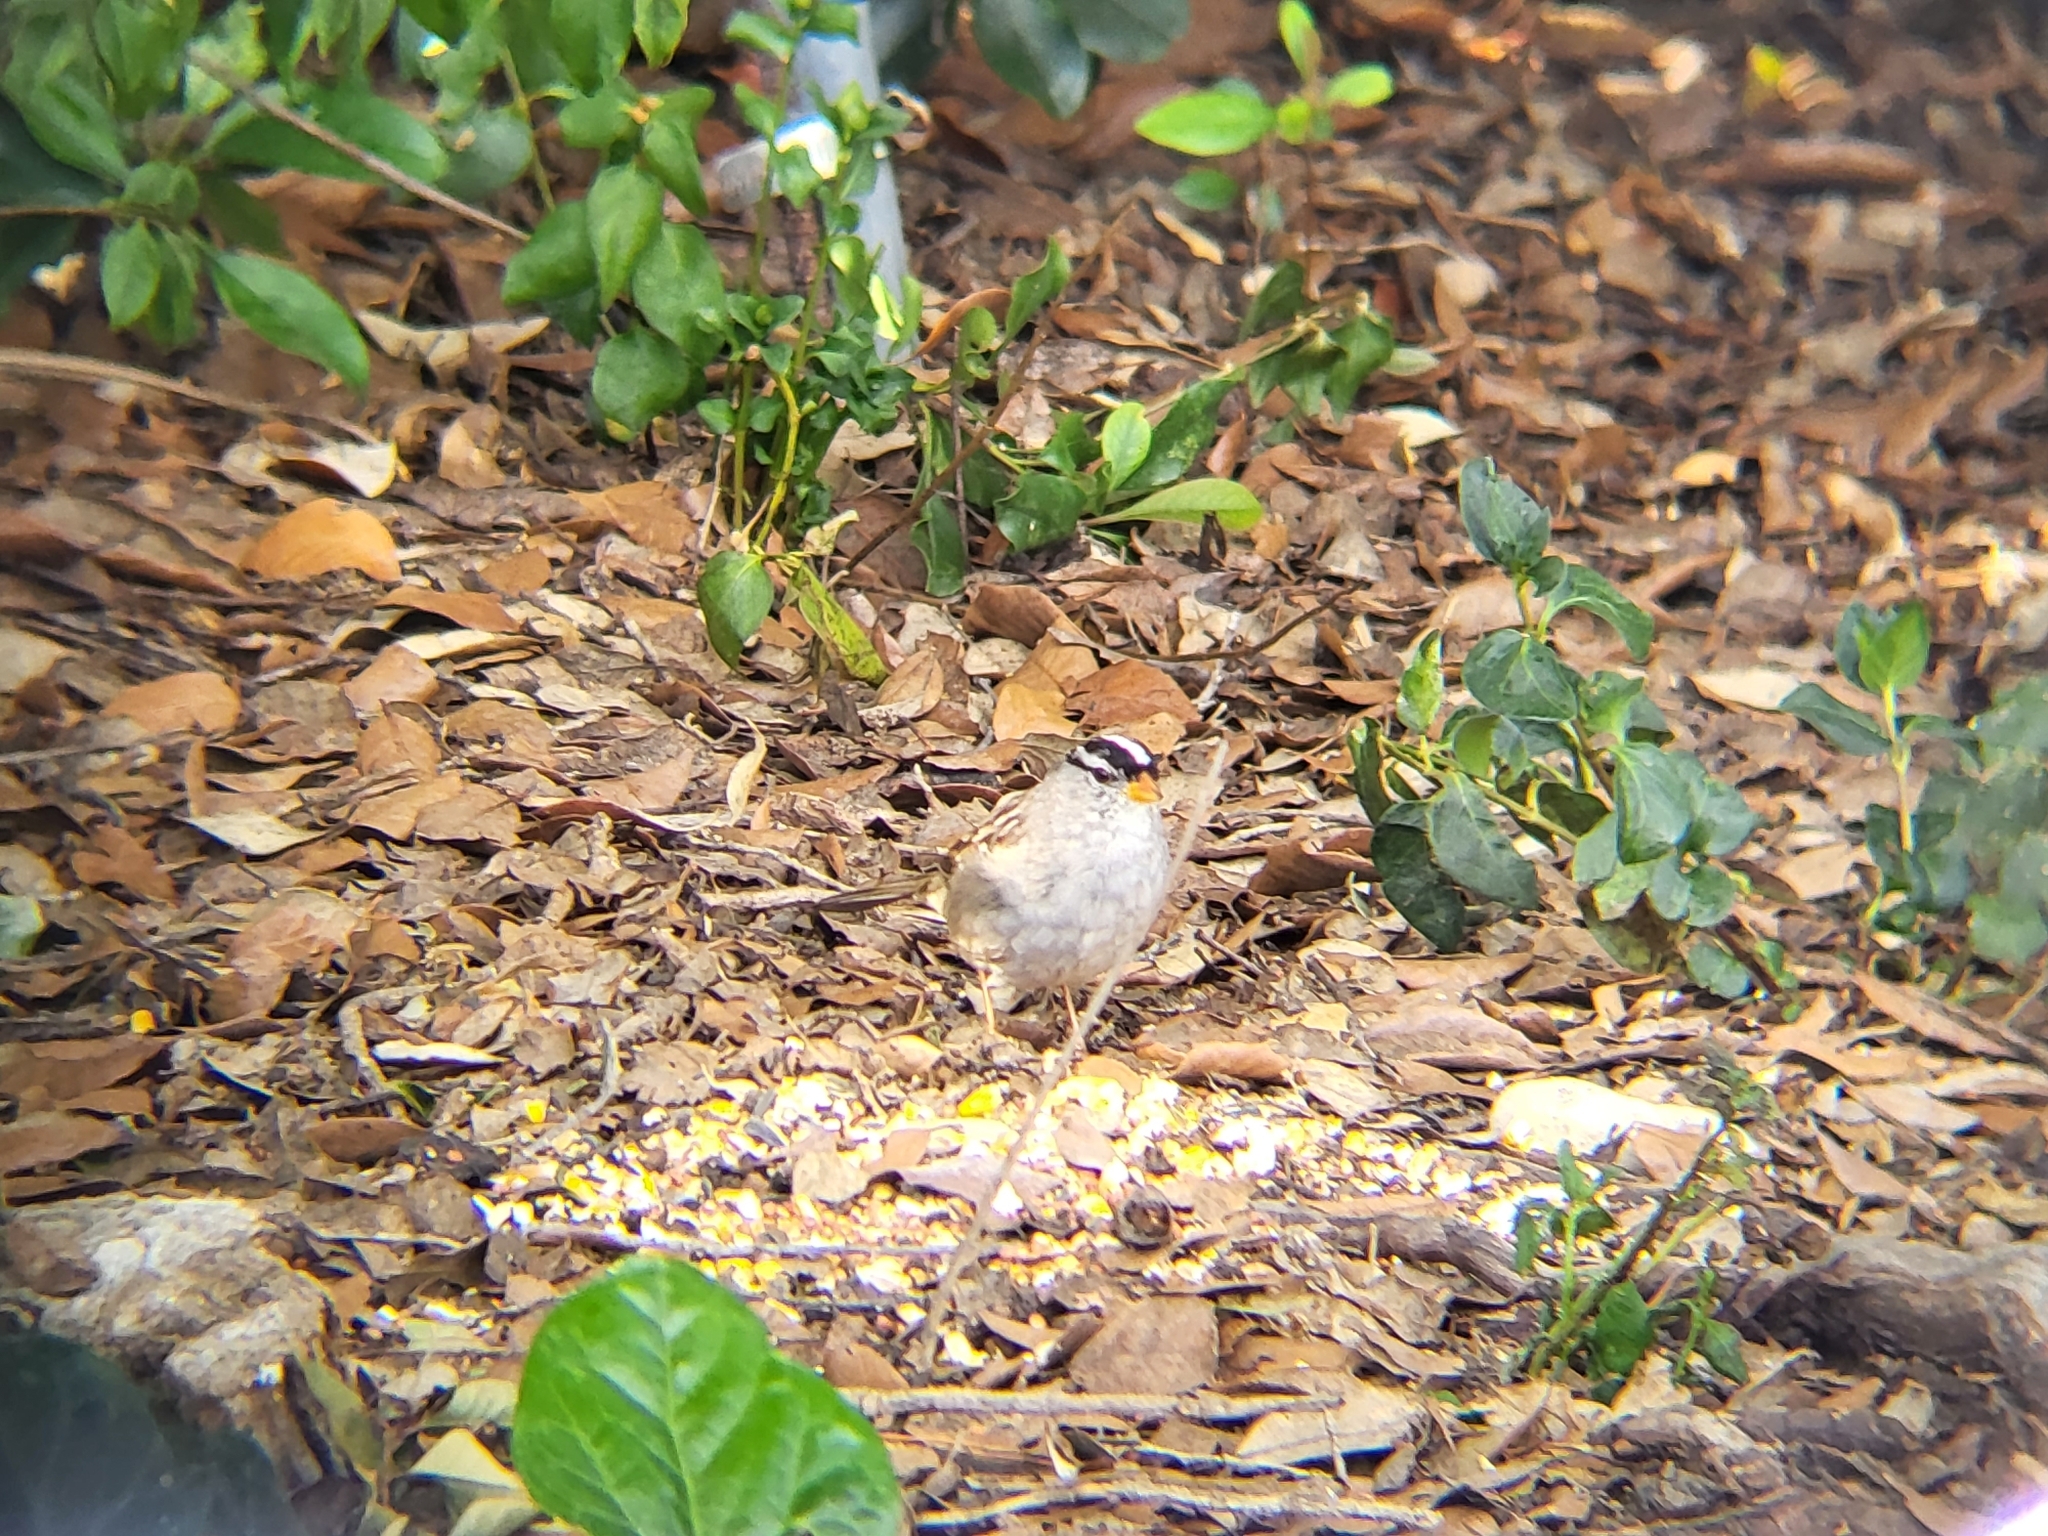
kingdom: Animalia
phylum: Chordata
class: Aves
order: Passeriformes
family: Passerellidae
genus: Zonotrichia
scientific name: Zonotrichia leucophrys
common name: White-crowned sparrow
